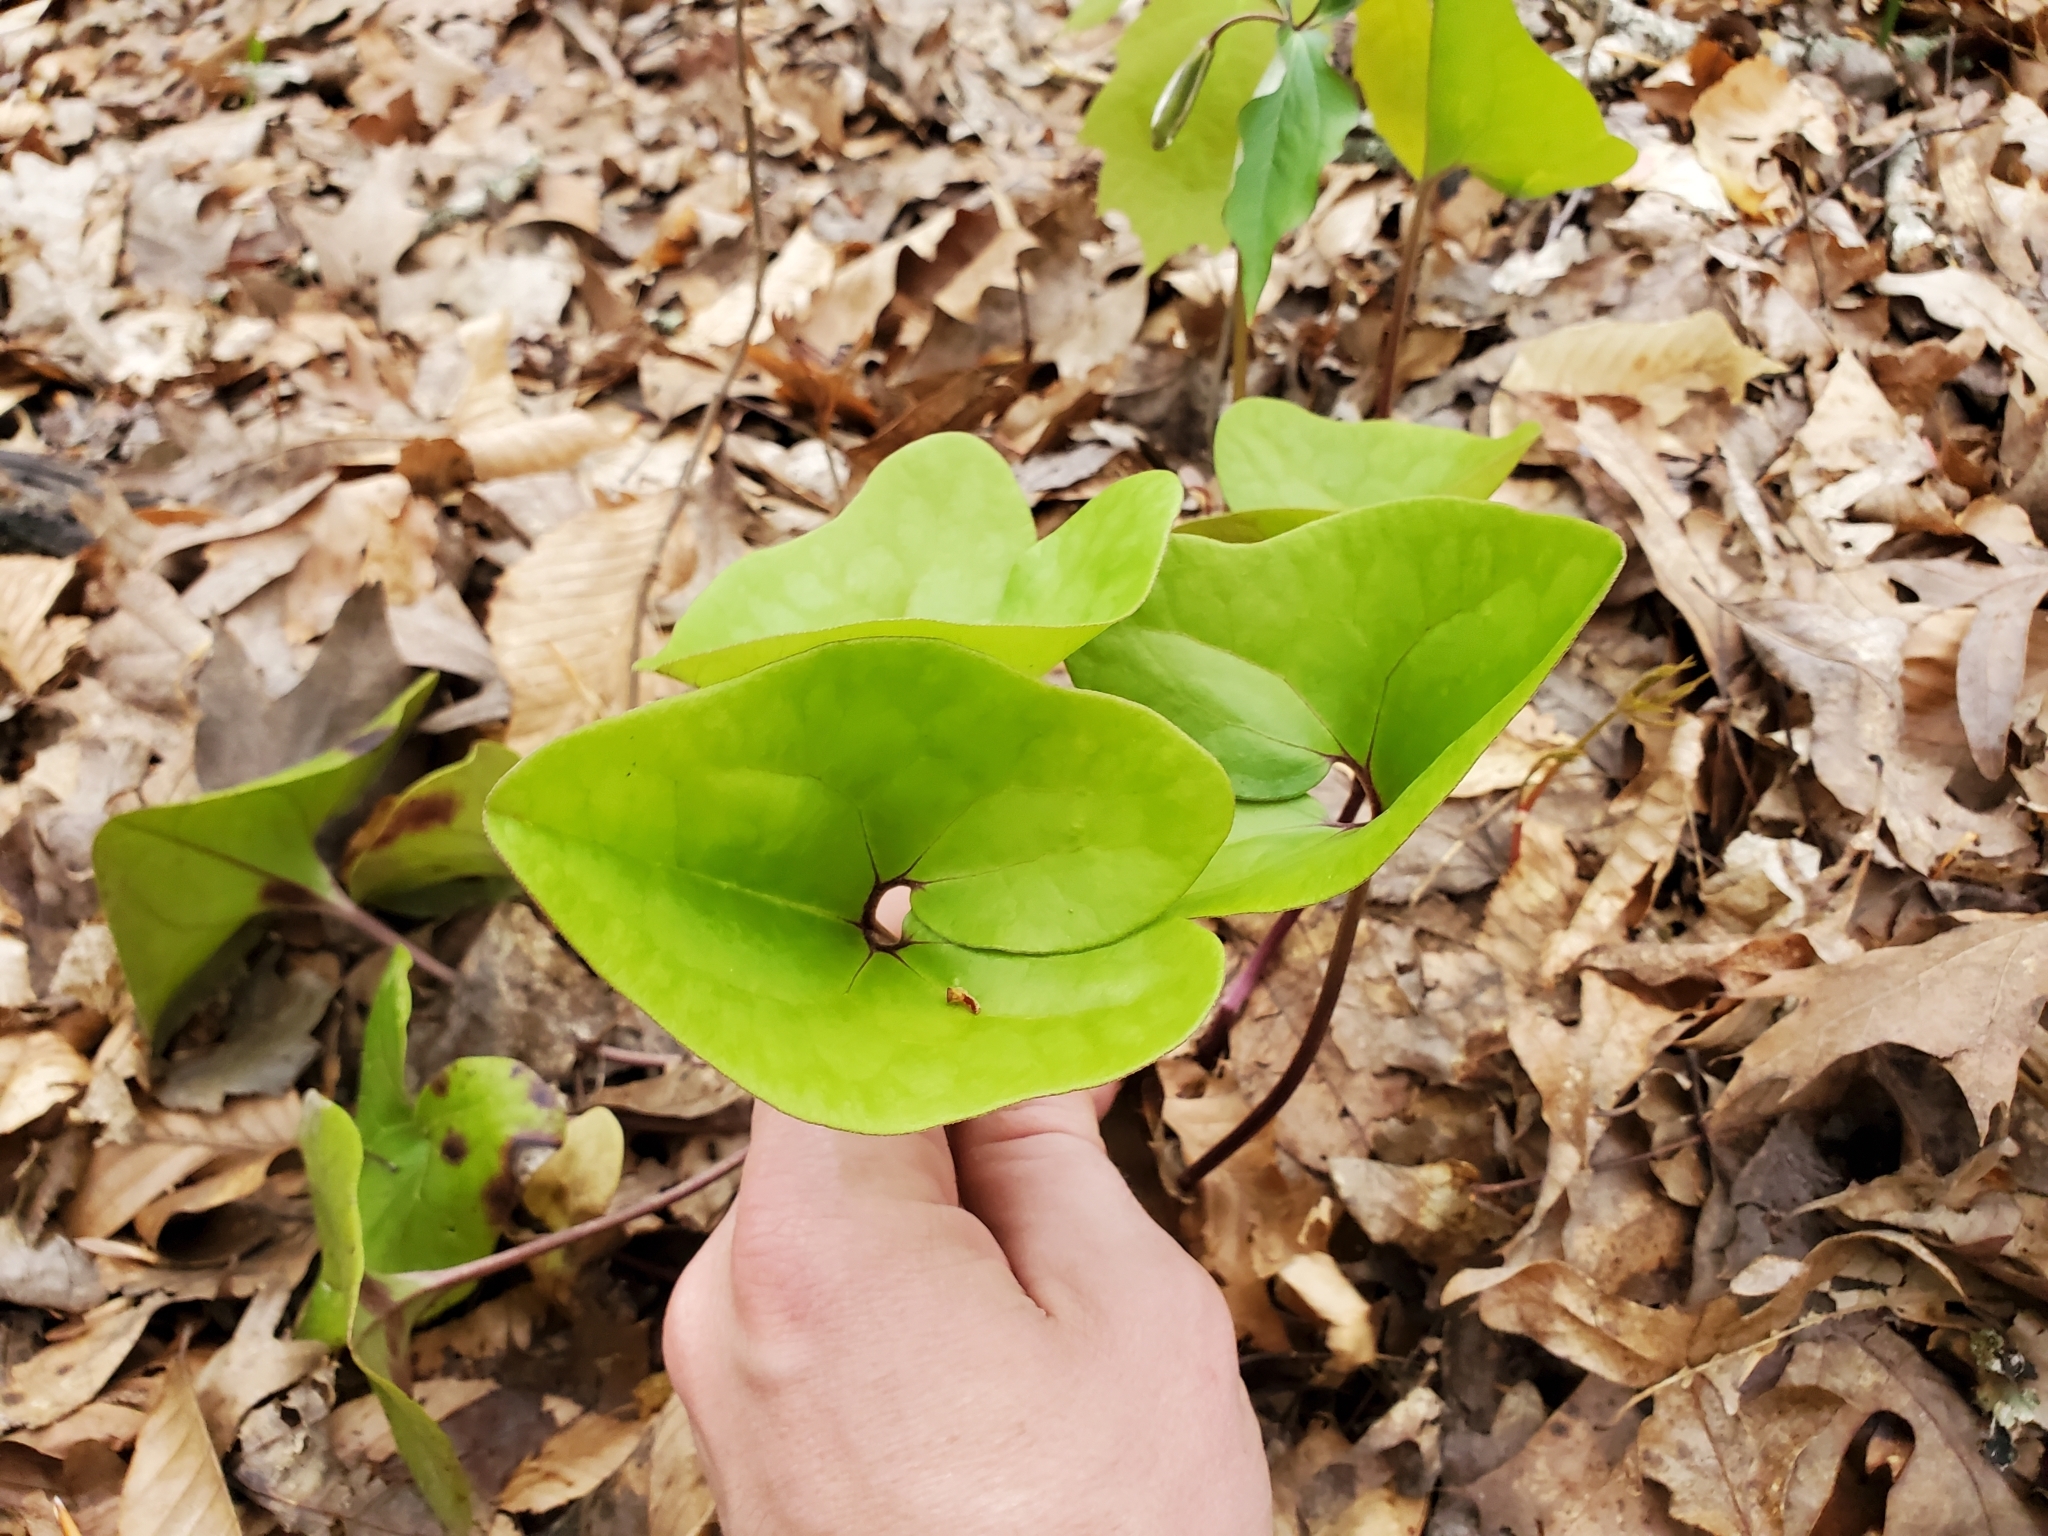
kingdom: Plantae
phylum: Tracheophyta
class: Magnoliopsida
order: Piperales
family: Aristolochiaceae
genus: Hexastylis
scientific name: Hexastylis arifolia
